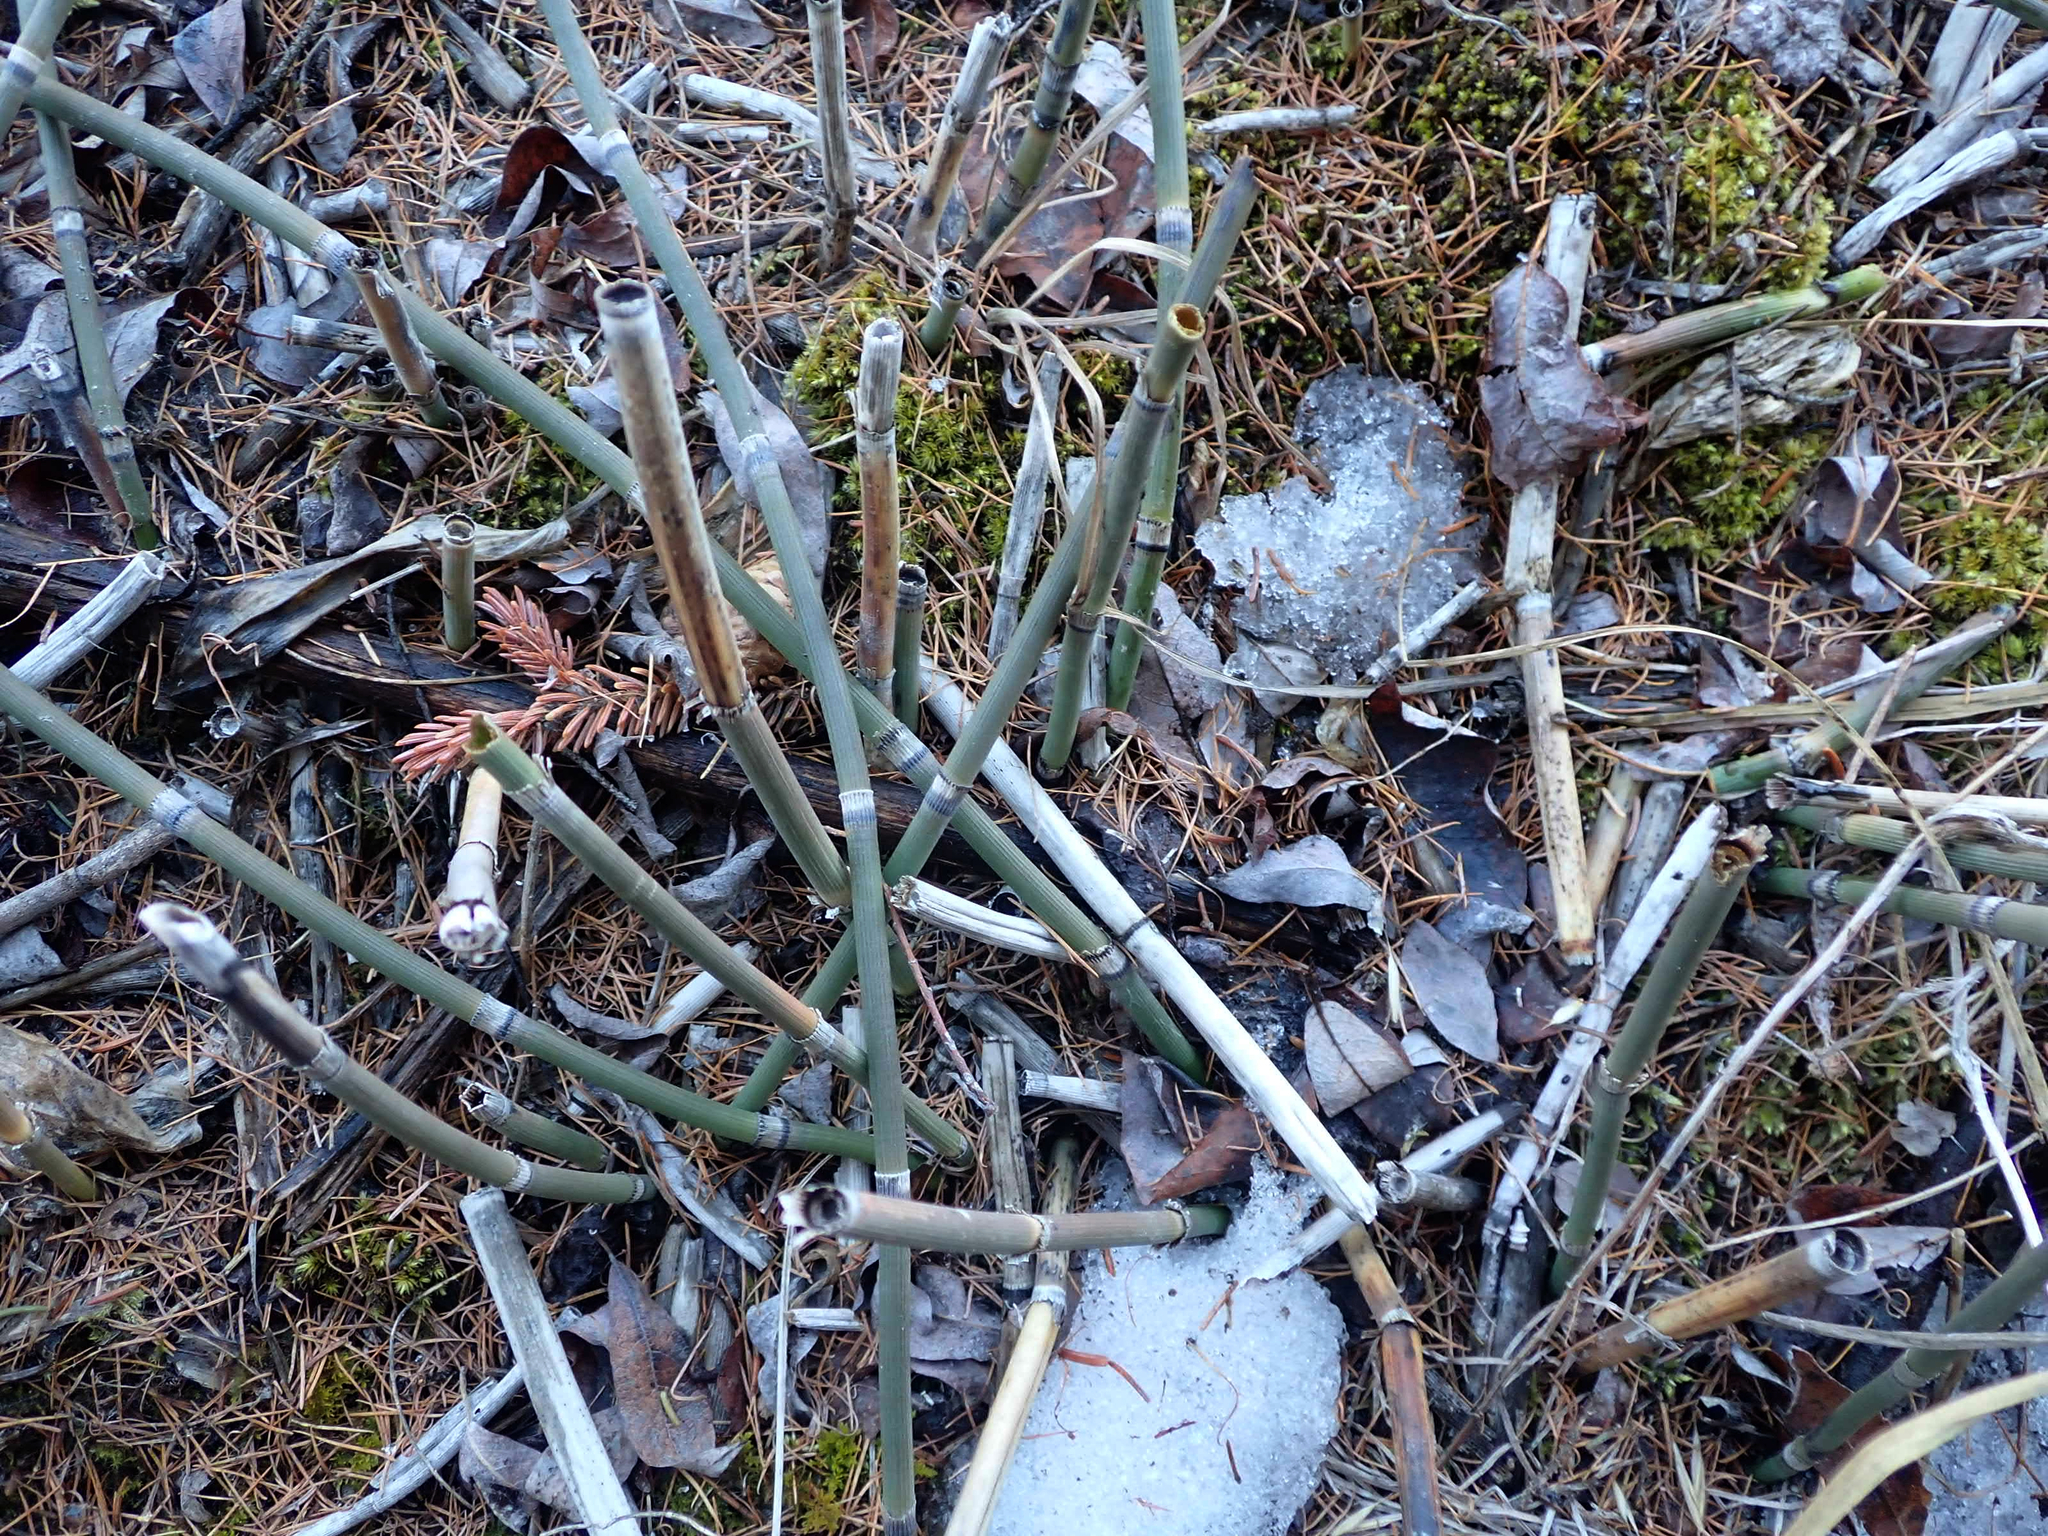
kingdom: Plantae
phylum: Tracheophyta
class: Polypodiopsida
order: Equisetales
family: Equisetaceae
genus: Equisetum
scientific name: Equisetum praealtum
